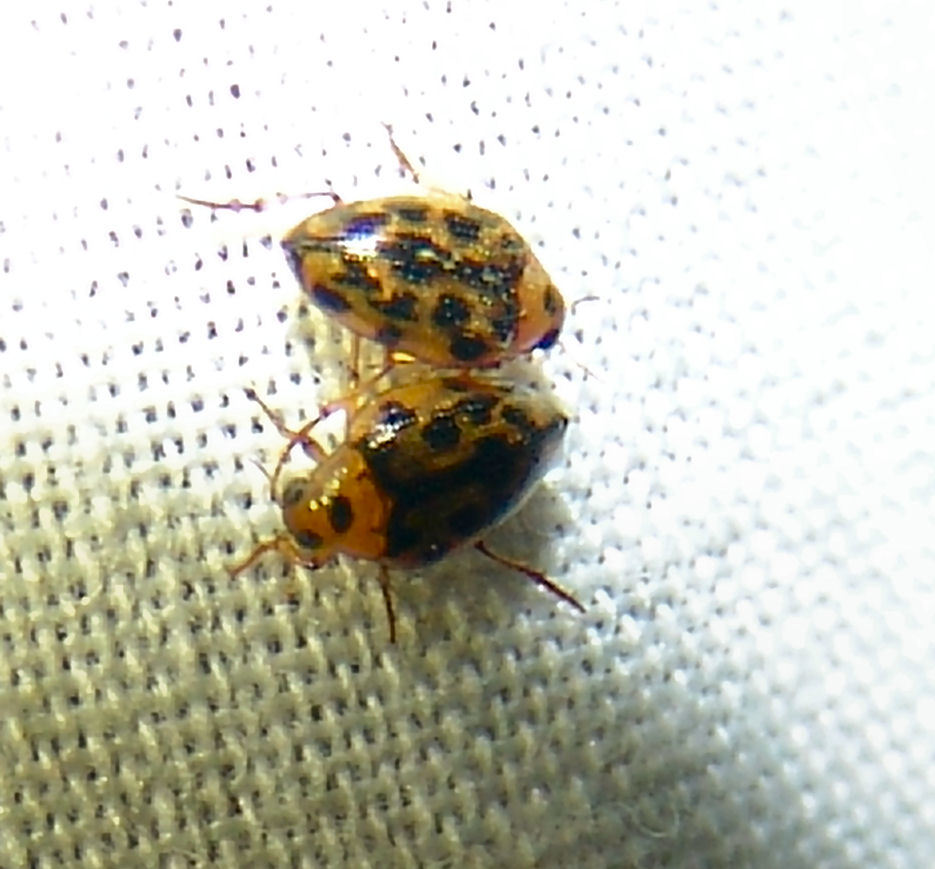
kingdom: Animalia
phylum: Arthropoda
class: Insecta
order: Coleoptera
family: Haliplidae
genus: Haliplus
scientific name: Haliplus
